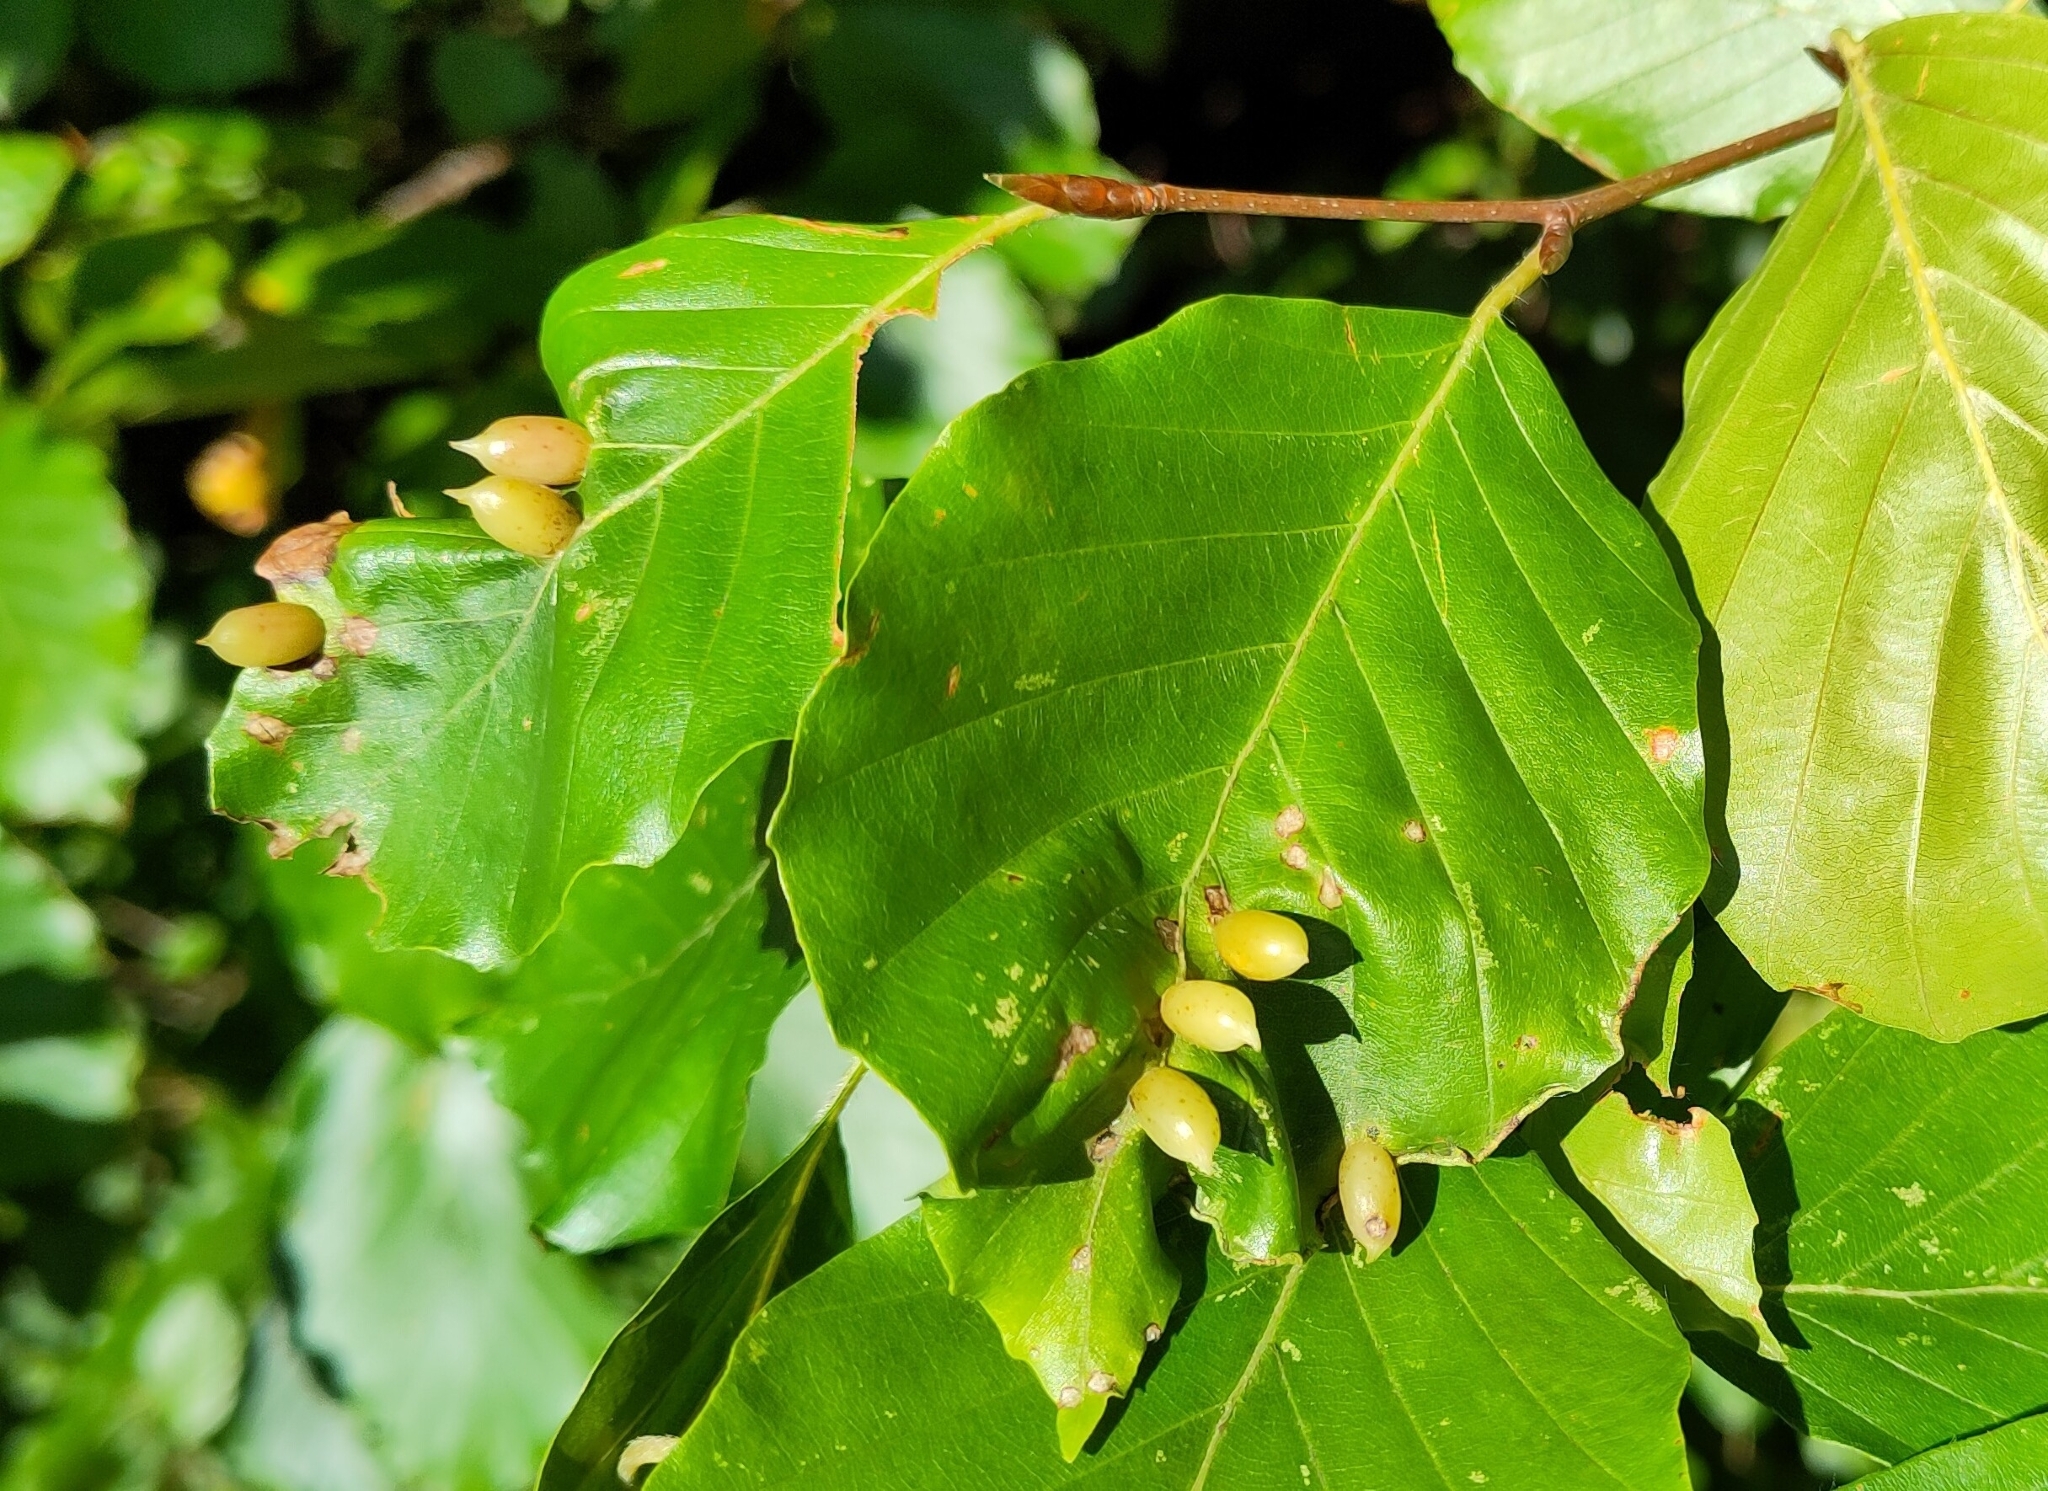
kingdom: Animalia
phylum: Arthropoda
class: Insecta
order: Diptera
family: Cecidomyiidae
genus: Mikiola
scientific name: Mikiola fagi
